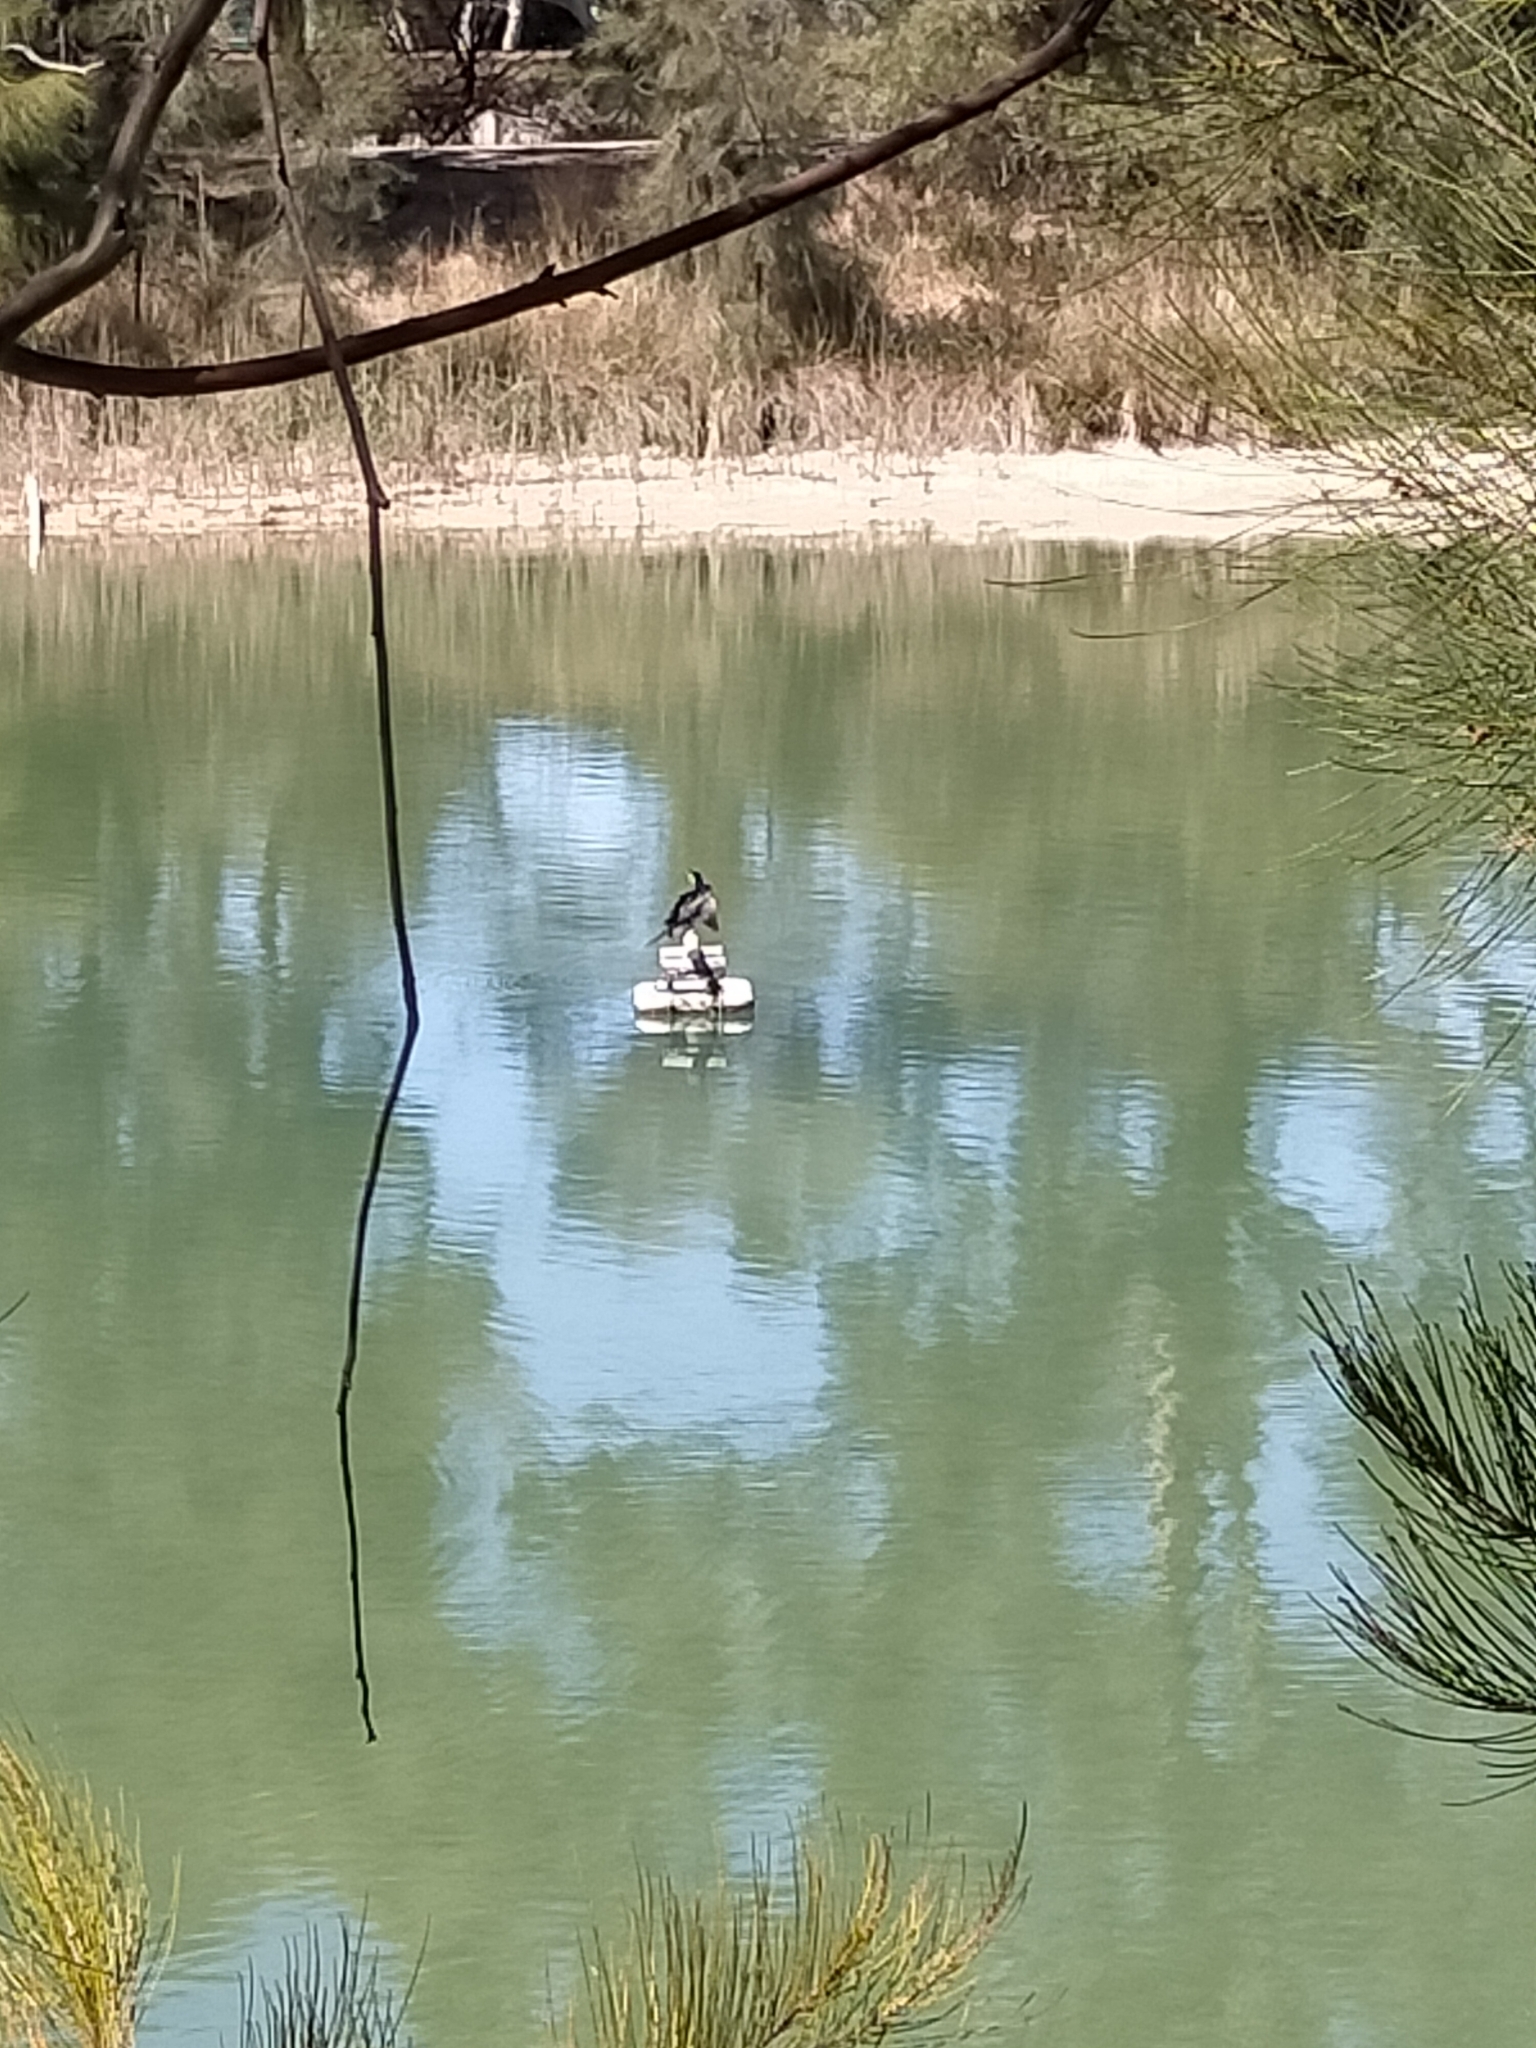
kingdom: Animalia
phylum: Chordata
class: Aves
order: Suliformes
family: Phalacrocoracidae
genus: Microcarbo
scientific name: Microcarbo melanoleucos
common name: Little pied cormorant
